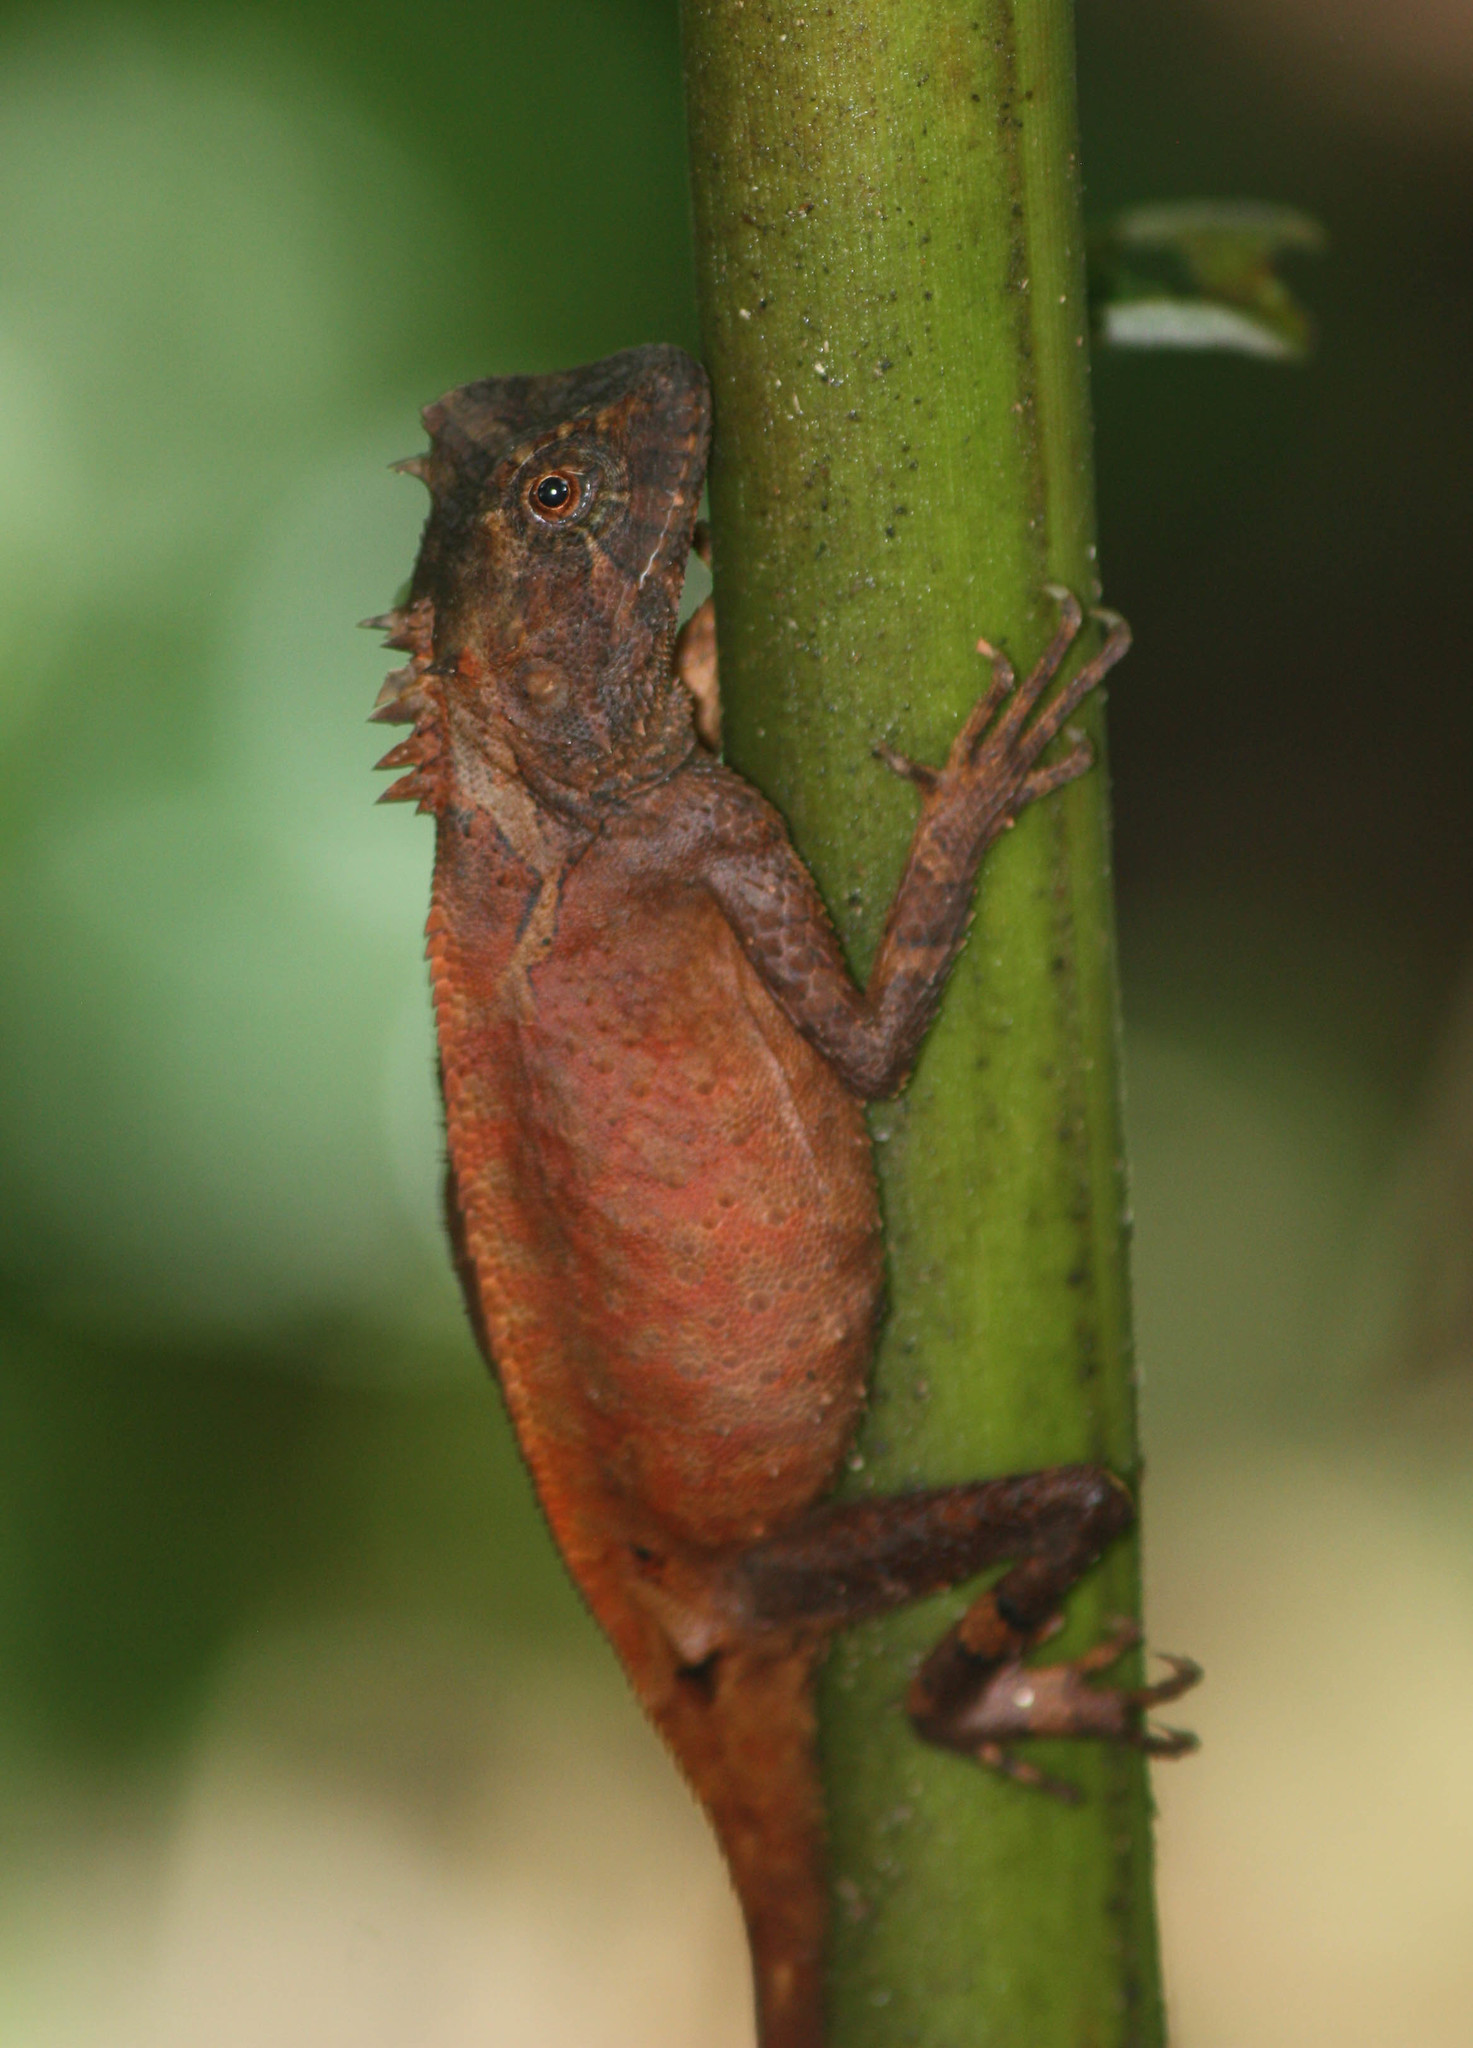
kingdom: Animalia
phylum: Chordata
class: Squamata
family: Agamidae
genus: Acanthosaura
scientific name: Acanthosaura rubrilabris
